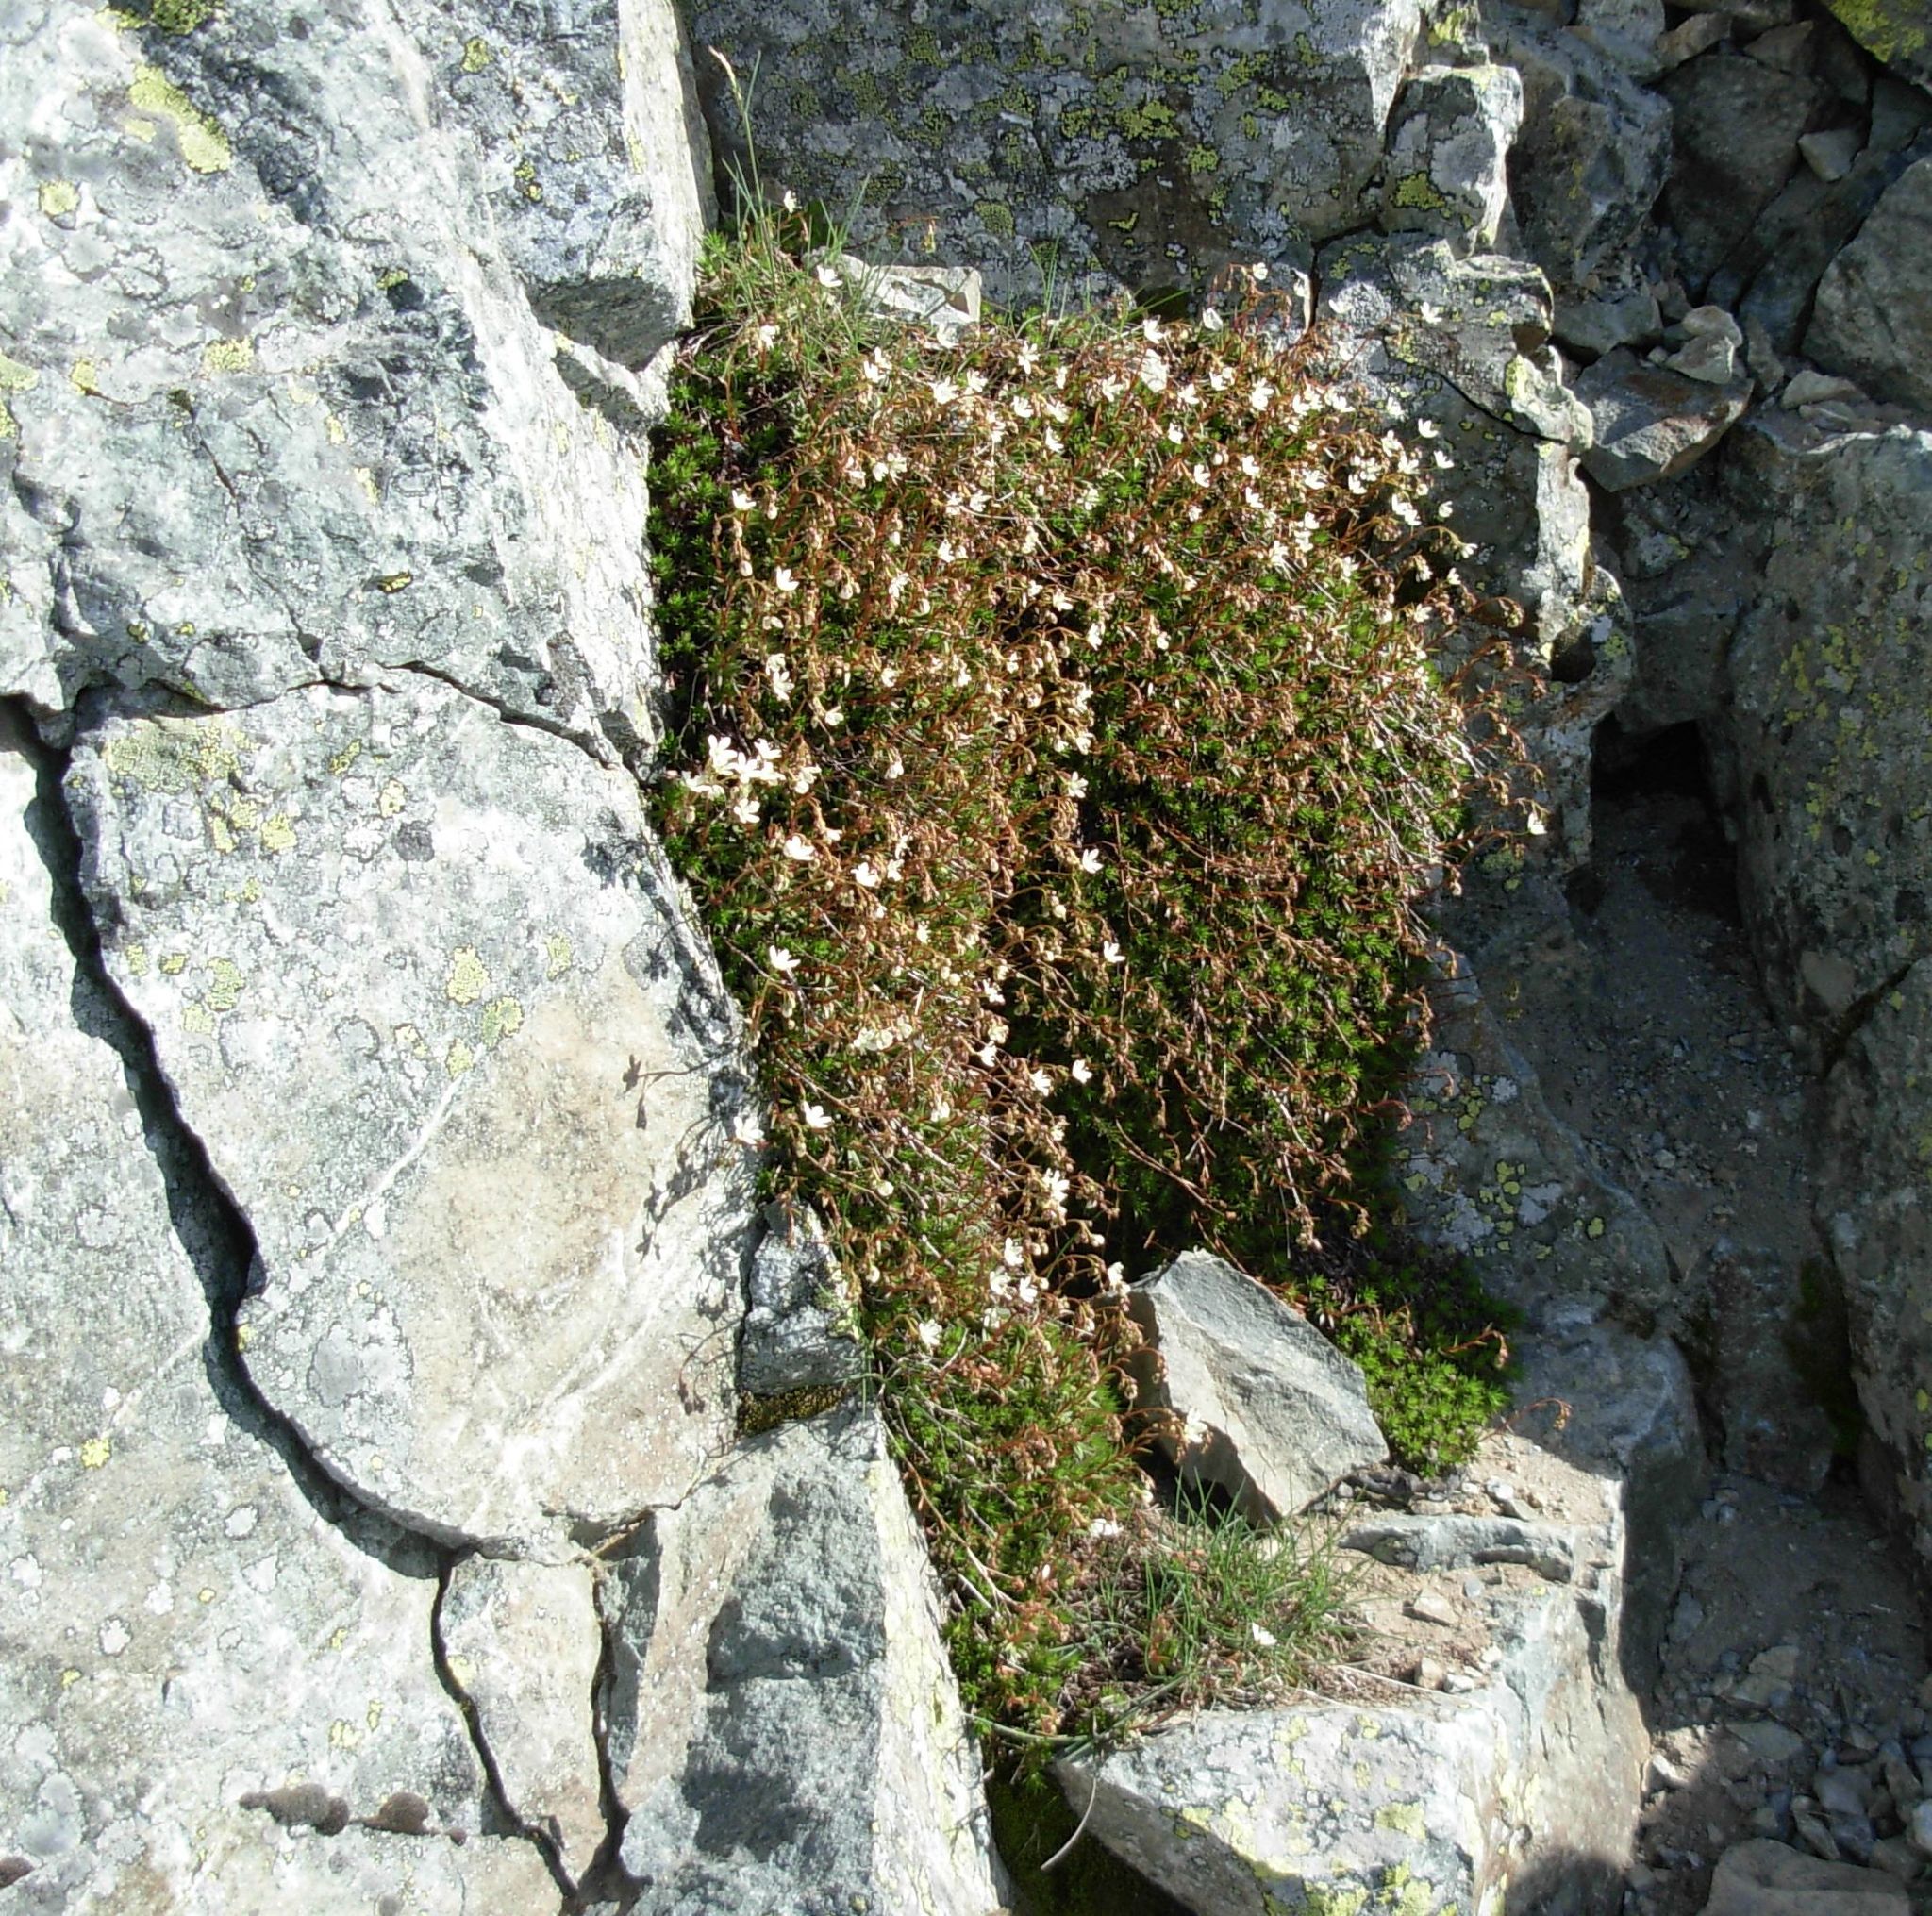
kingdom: Plantae
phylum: Tracheophyta
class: Magnoliopsida
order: Saxifragales
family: Saxifragaceae
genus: Saxifraga
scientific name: Saxifraga bronchialis
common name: Matted saxifrage
